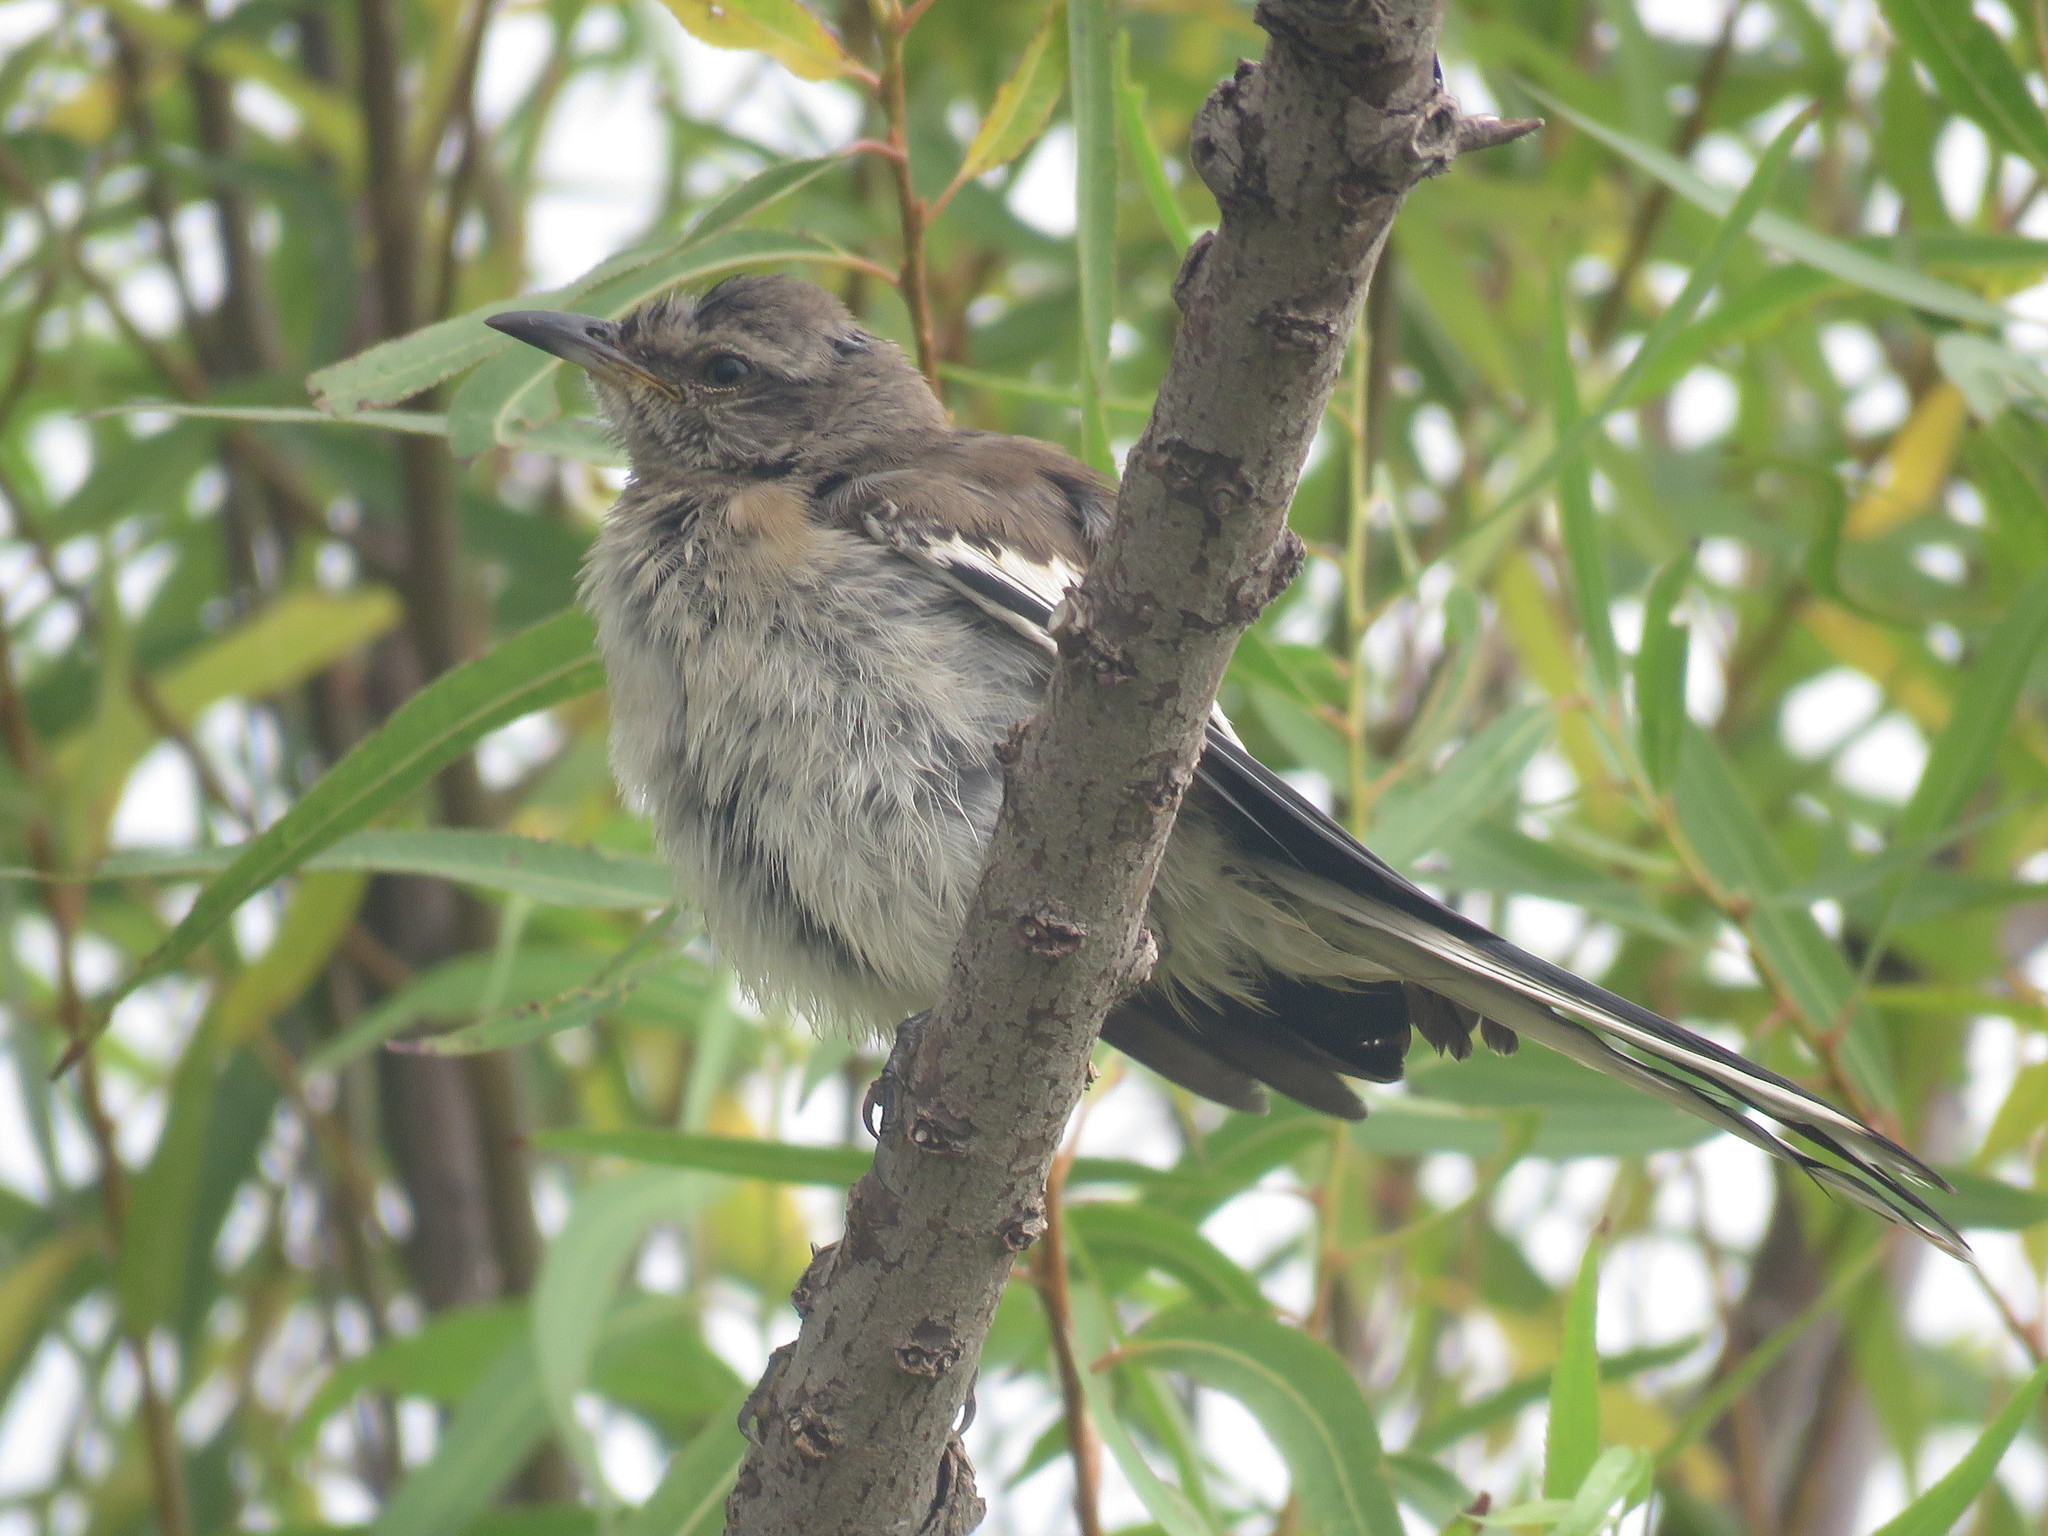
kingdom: Animalia
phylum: Chordata
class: Aves
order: Passeriformes
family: Mimidae
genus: Mimus
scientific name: Mimus triurus
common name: White-banded mockingbird
